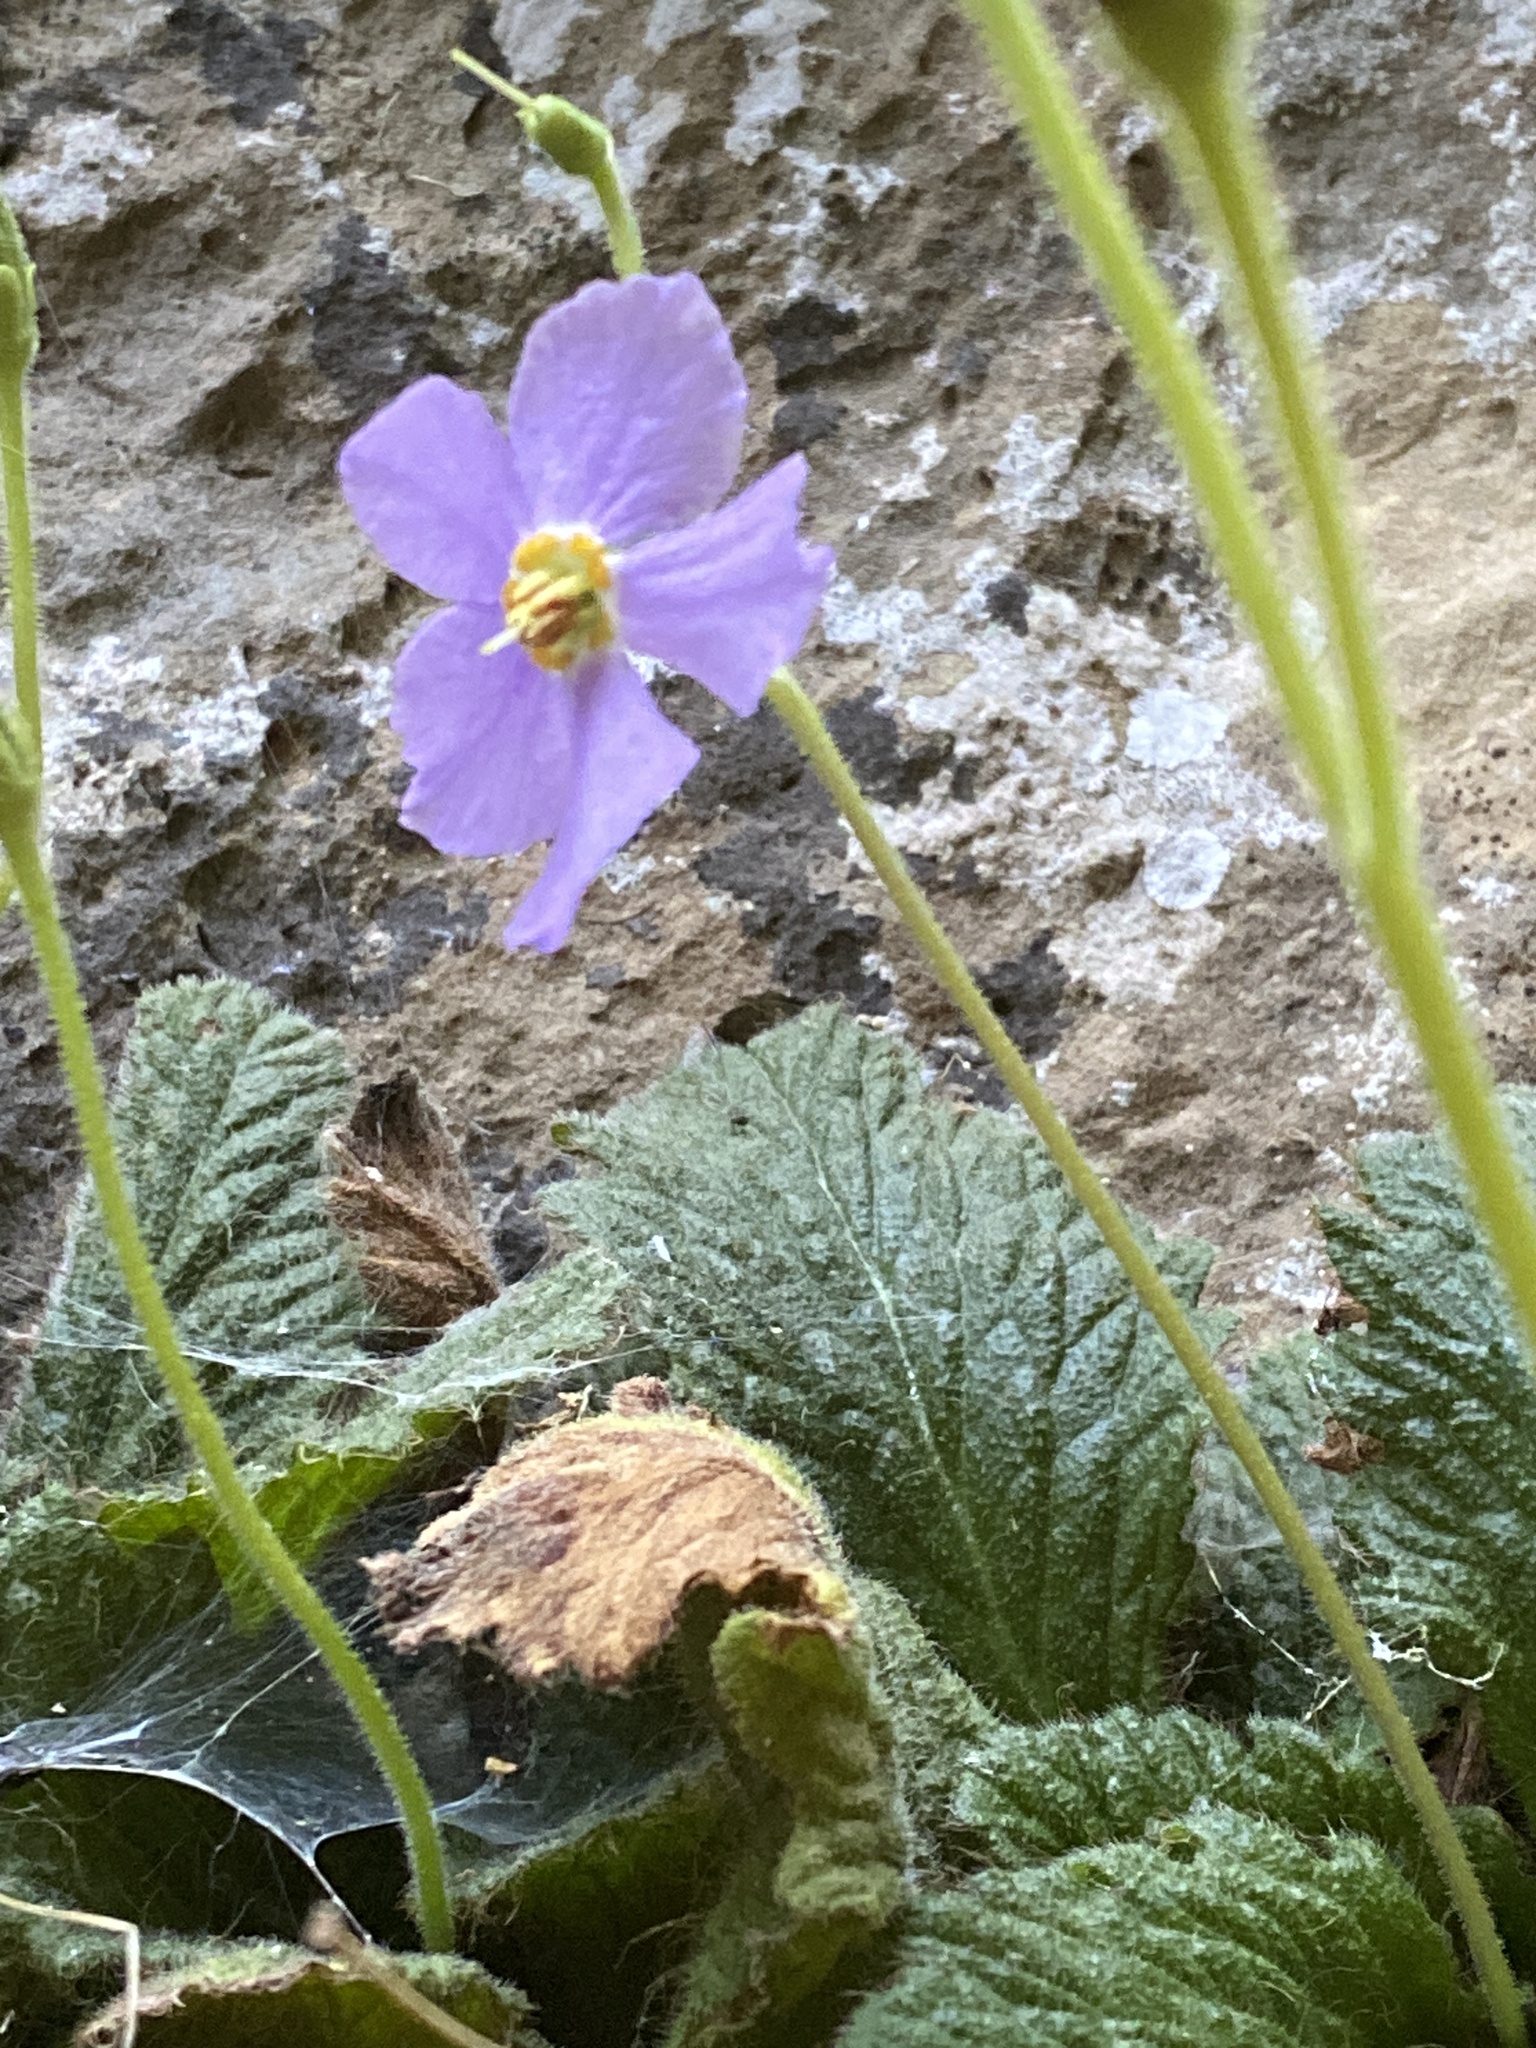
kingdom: Plantae
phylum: Tracheophyta
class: Magnoliopsida
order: Lamiales
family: Gesneriaceae
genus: Ramonda
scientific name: Ramonda myconi
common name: Pyrenean-violet
